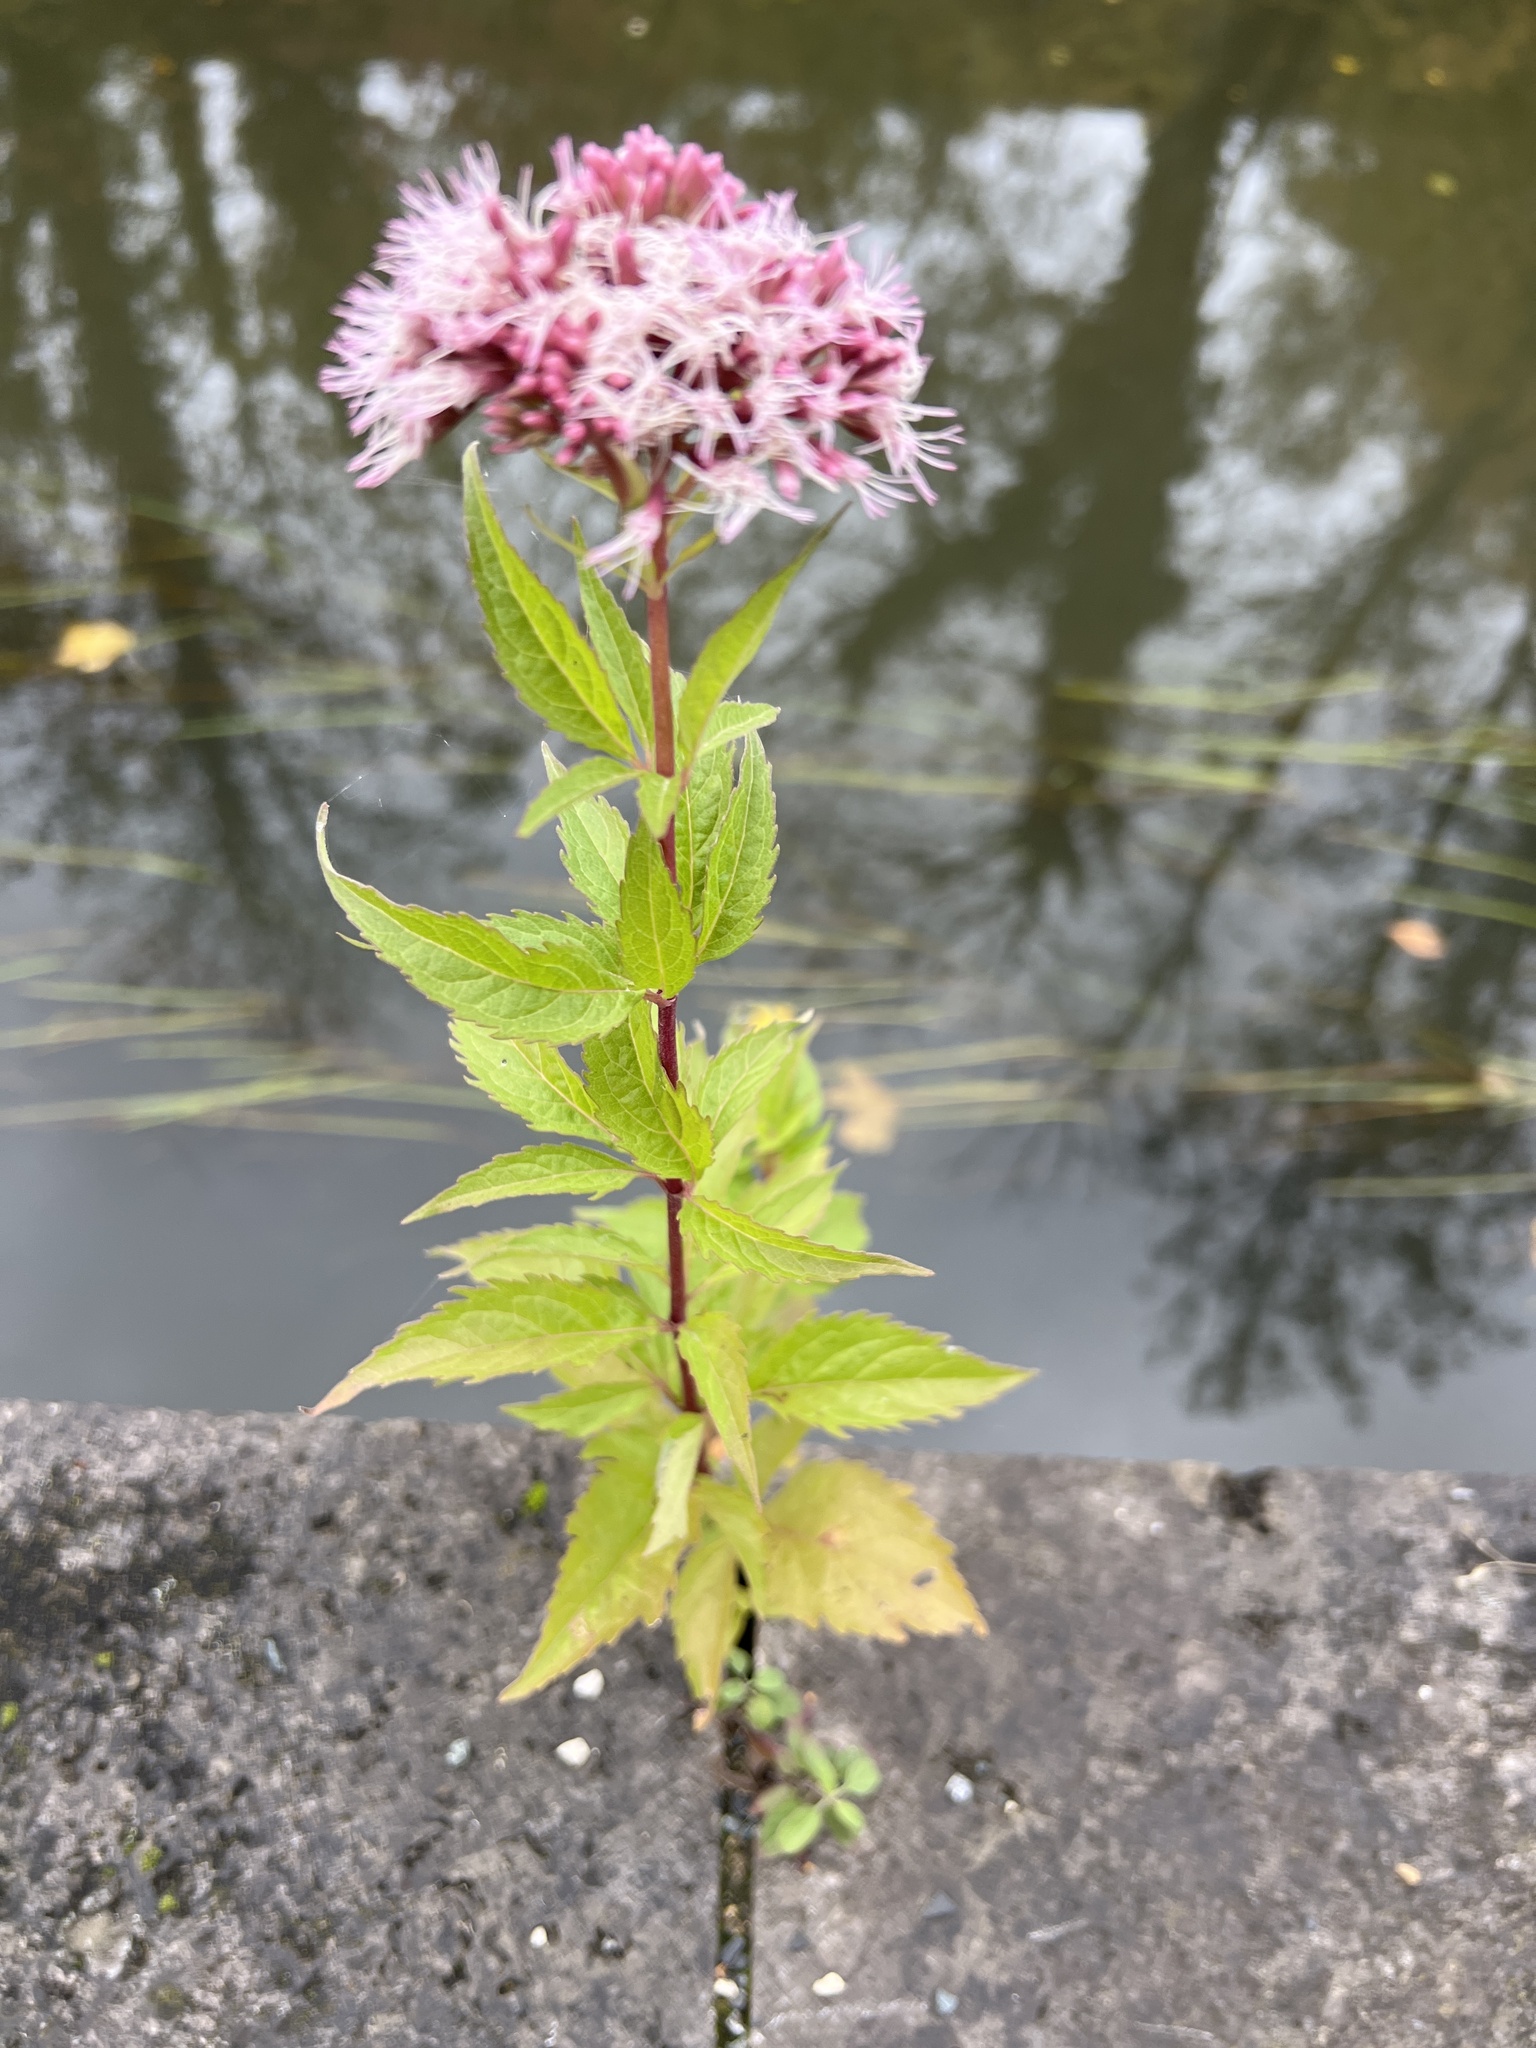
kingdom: Plantae
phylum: Tracheophyta
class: Magnoliopsida
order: Asterales
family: Asteraceae
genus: Eupatorium
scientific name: Eupatorium cannabinum
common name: Hemp-agrimony
